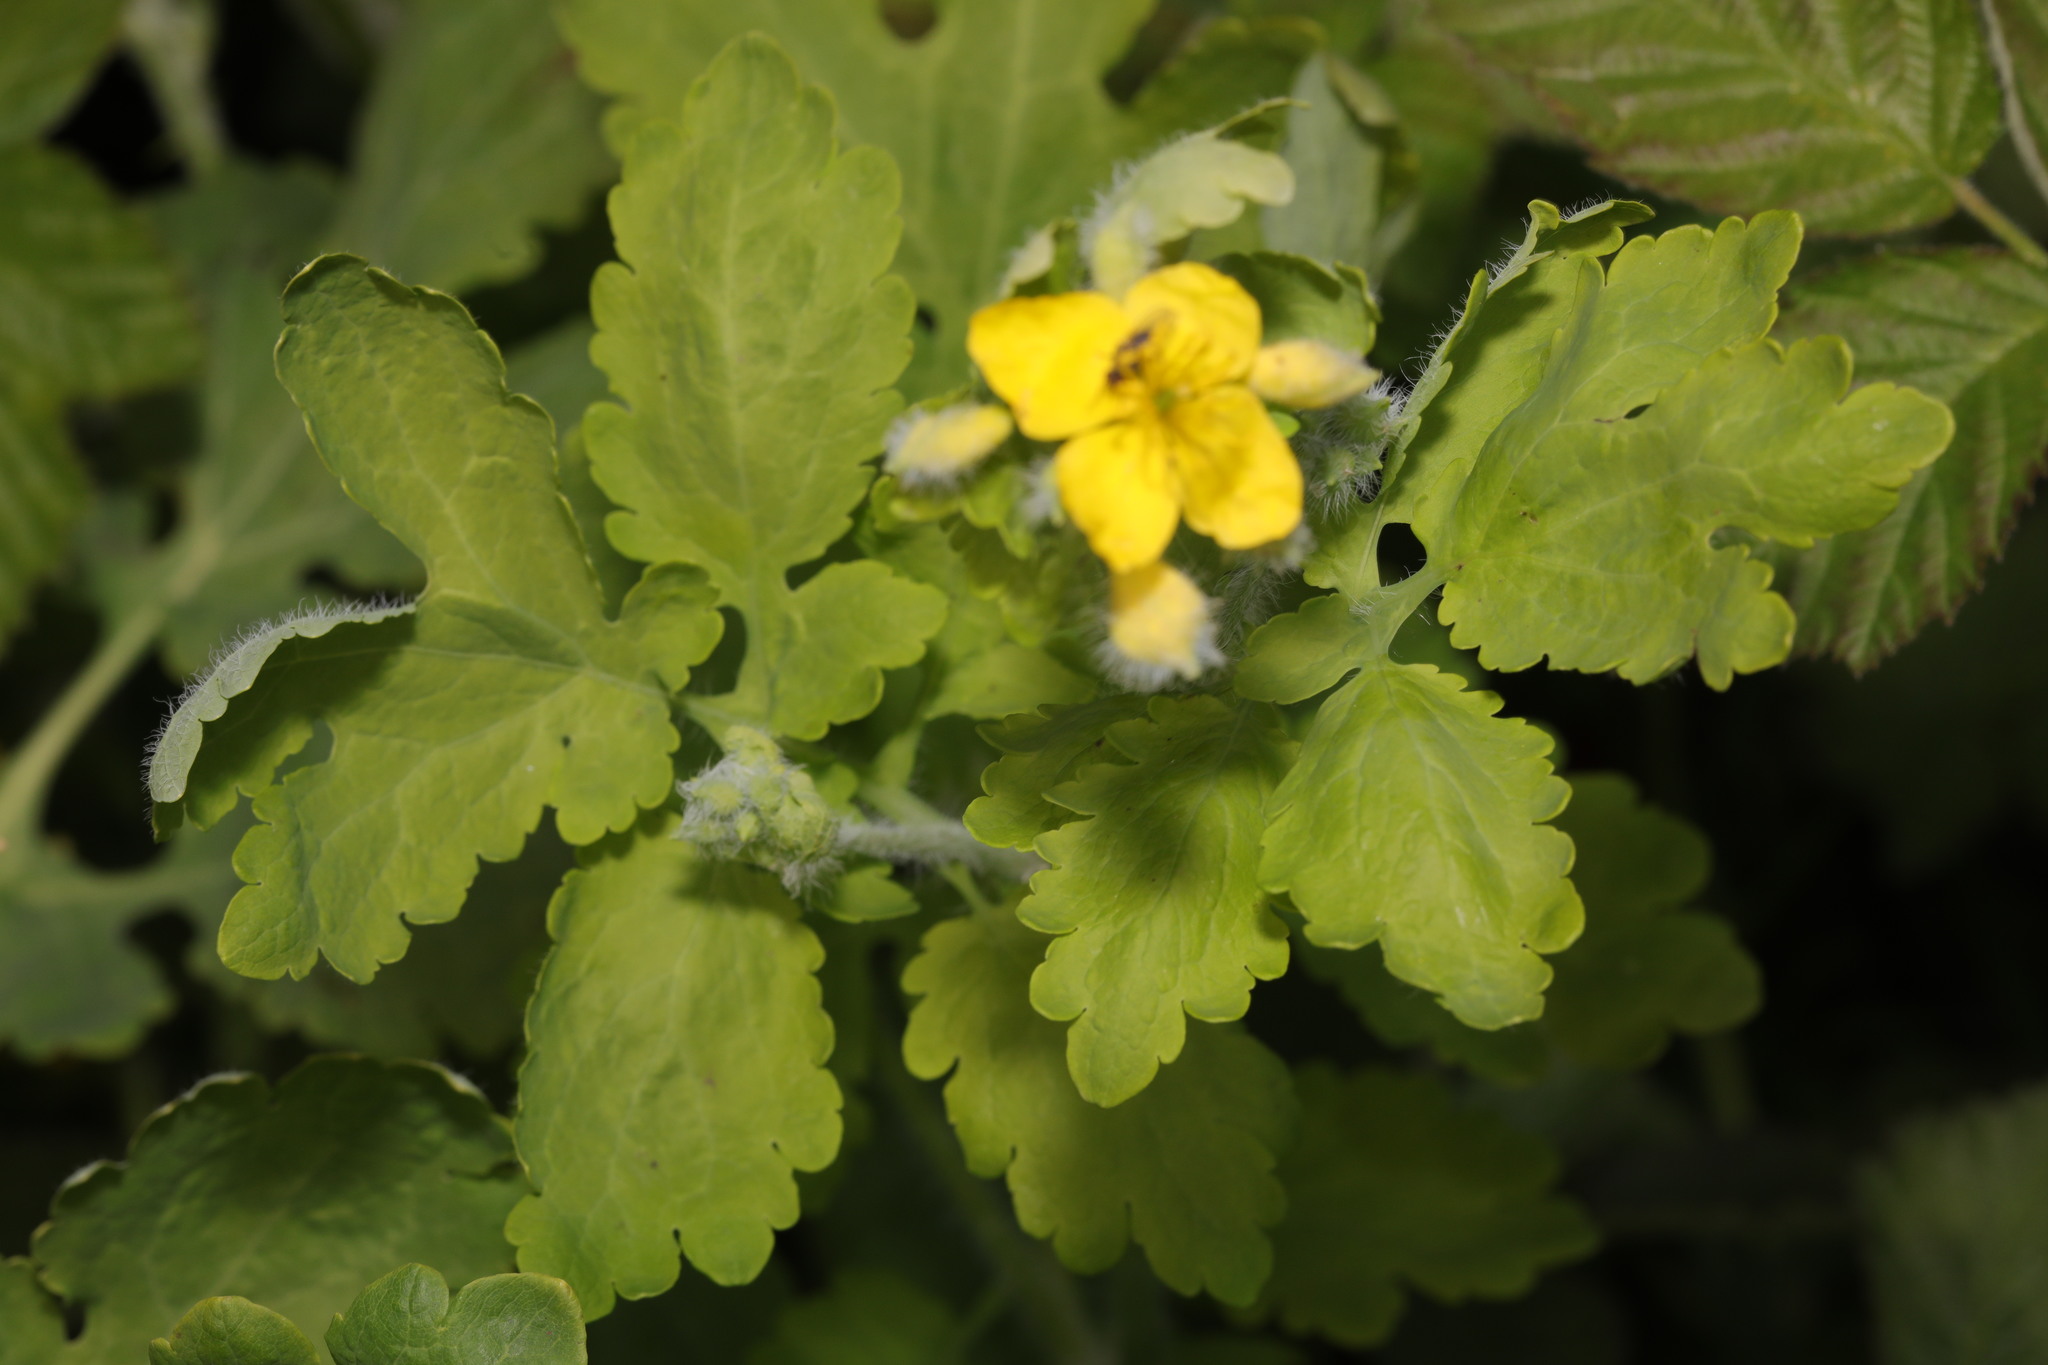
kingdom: Plantae
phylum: Tracheophyta
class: Magnoliopsida
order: Ranunculales
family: Papaveraceae
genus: Chelidonium
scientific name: Chelidonium majus
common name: Greater celandine
